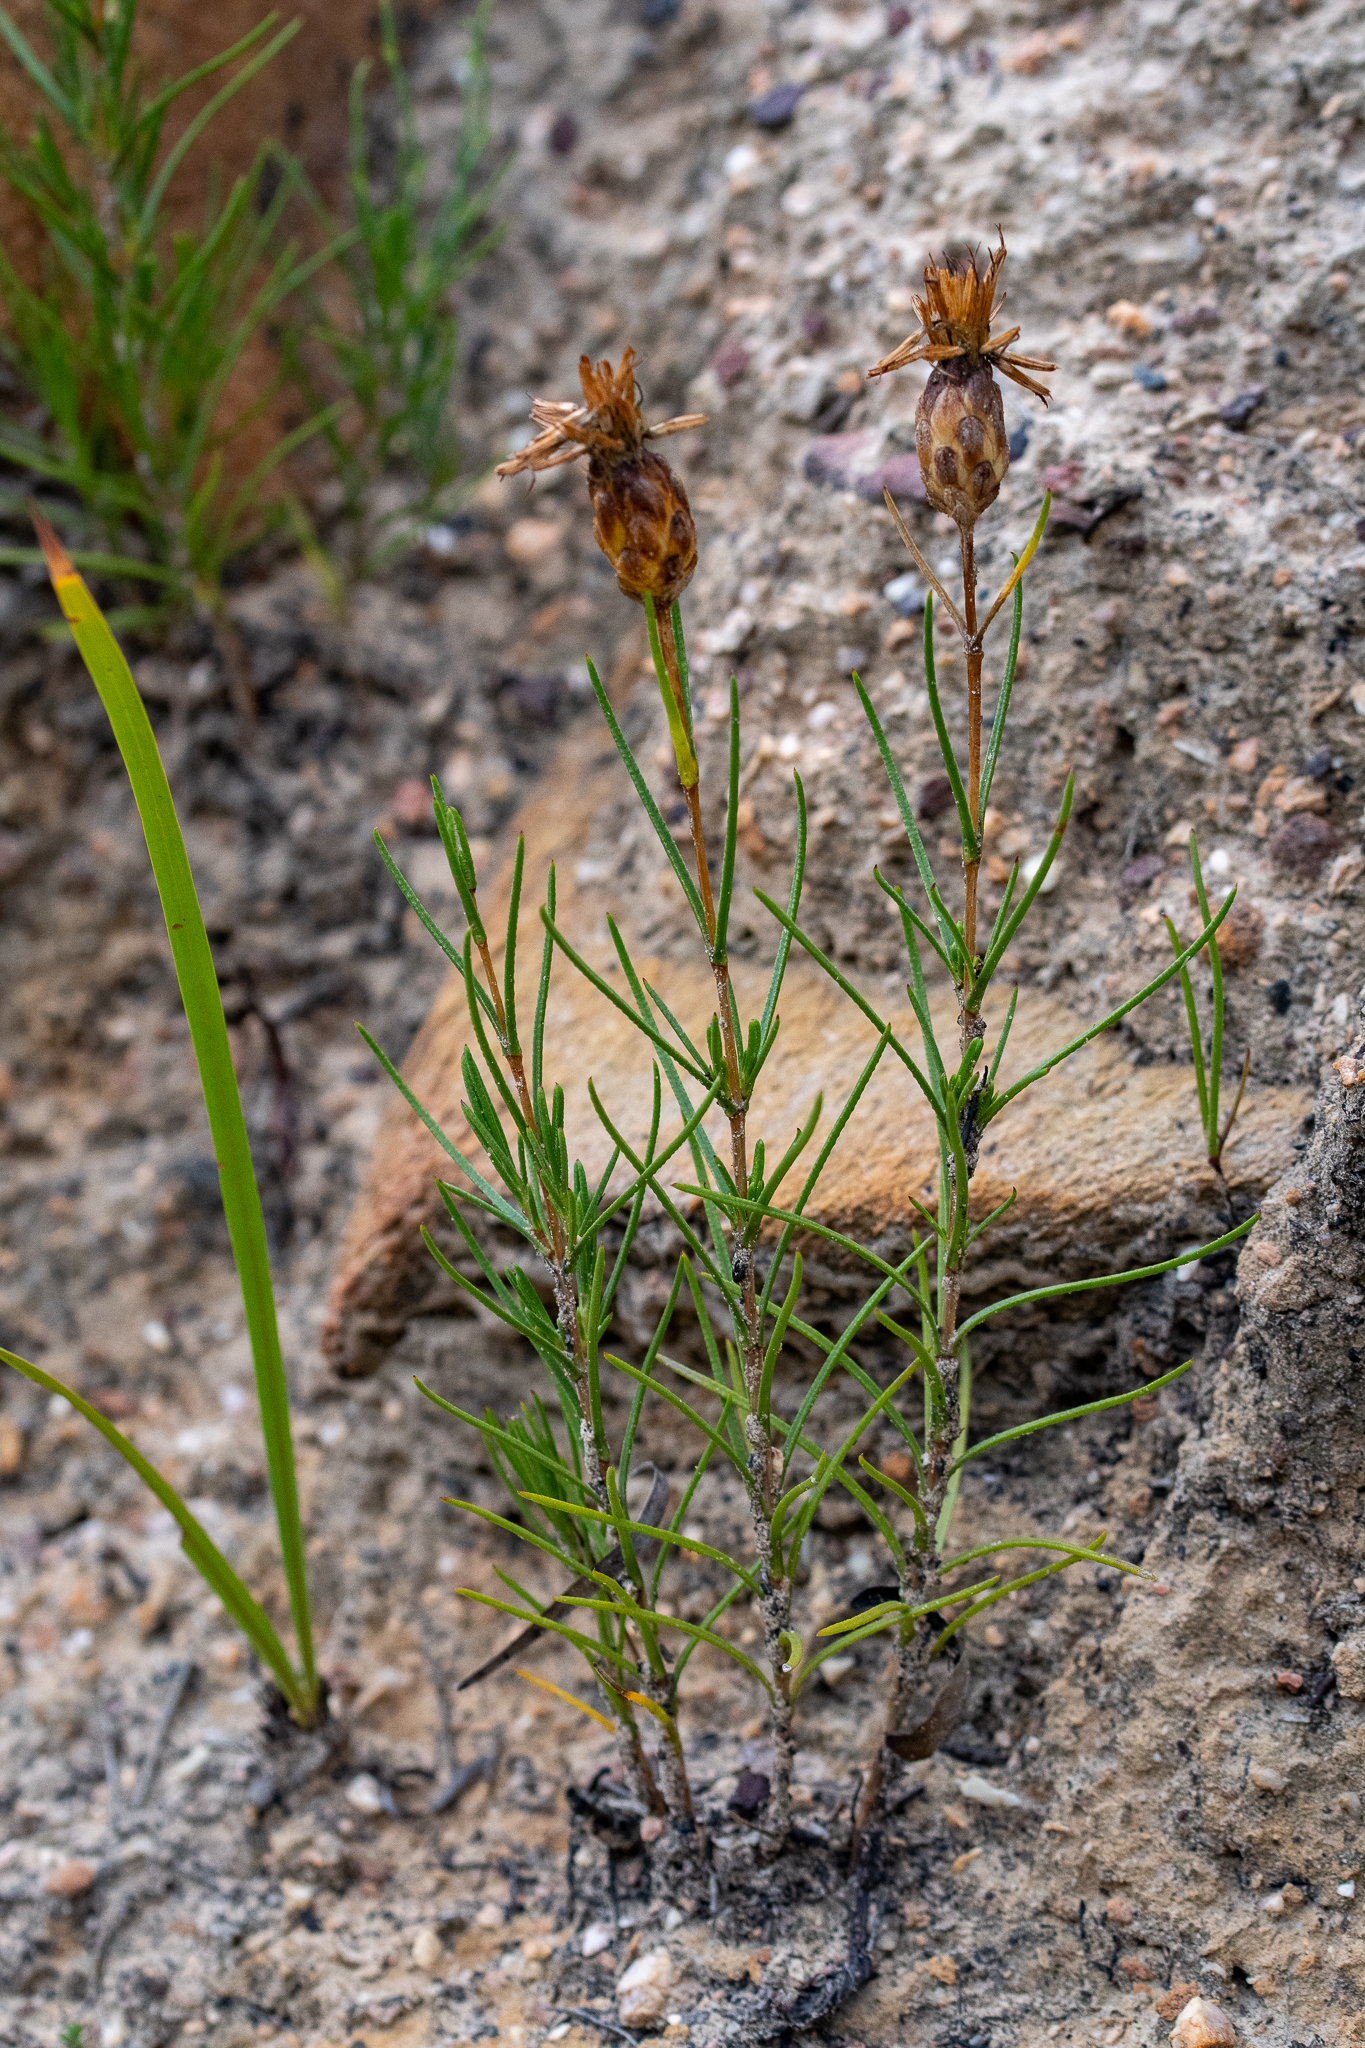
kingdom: Plantae
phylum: Tracheophyta
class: Magnoliopsida
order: Asterales
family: Asteraceae
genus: Pteronia
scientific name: Pteronia tenuifolia
